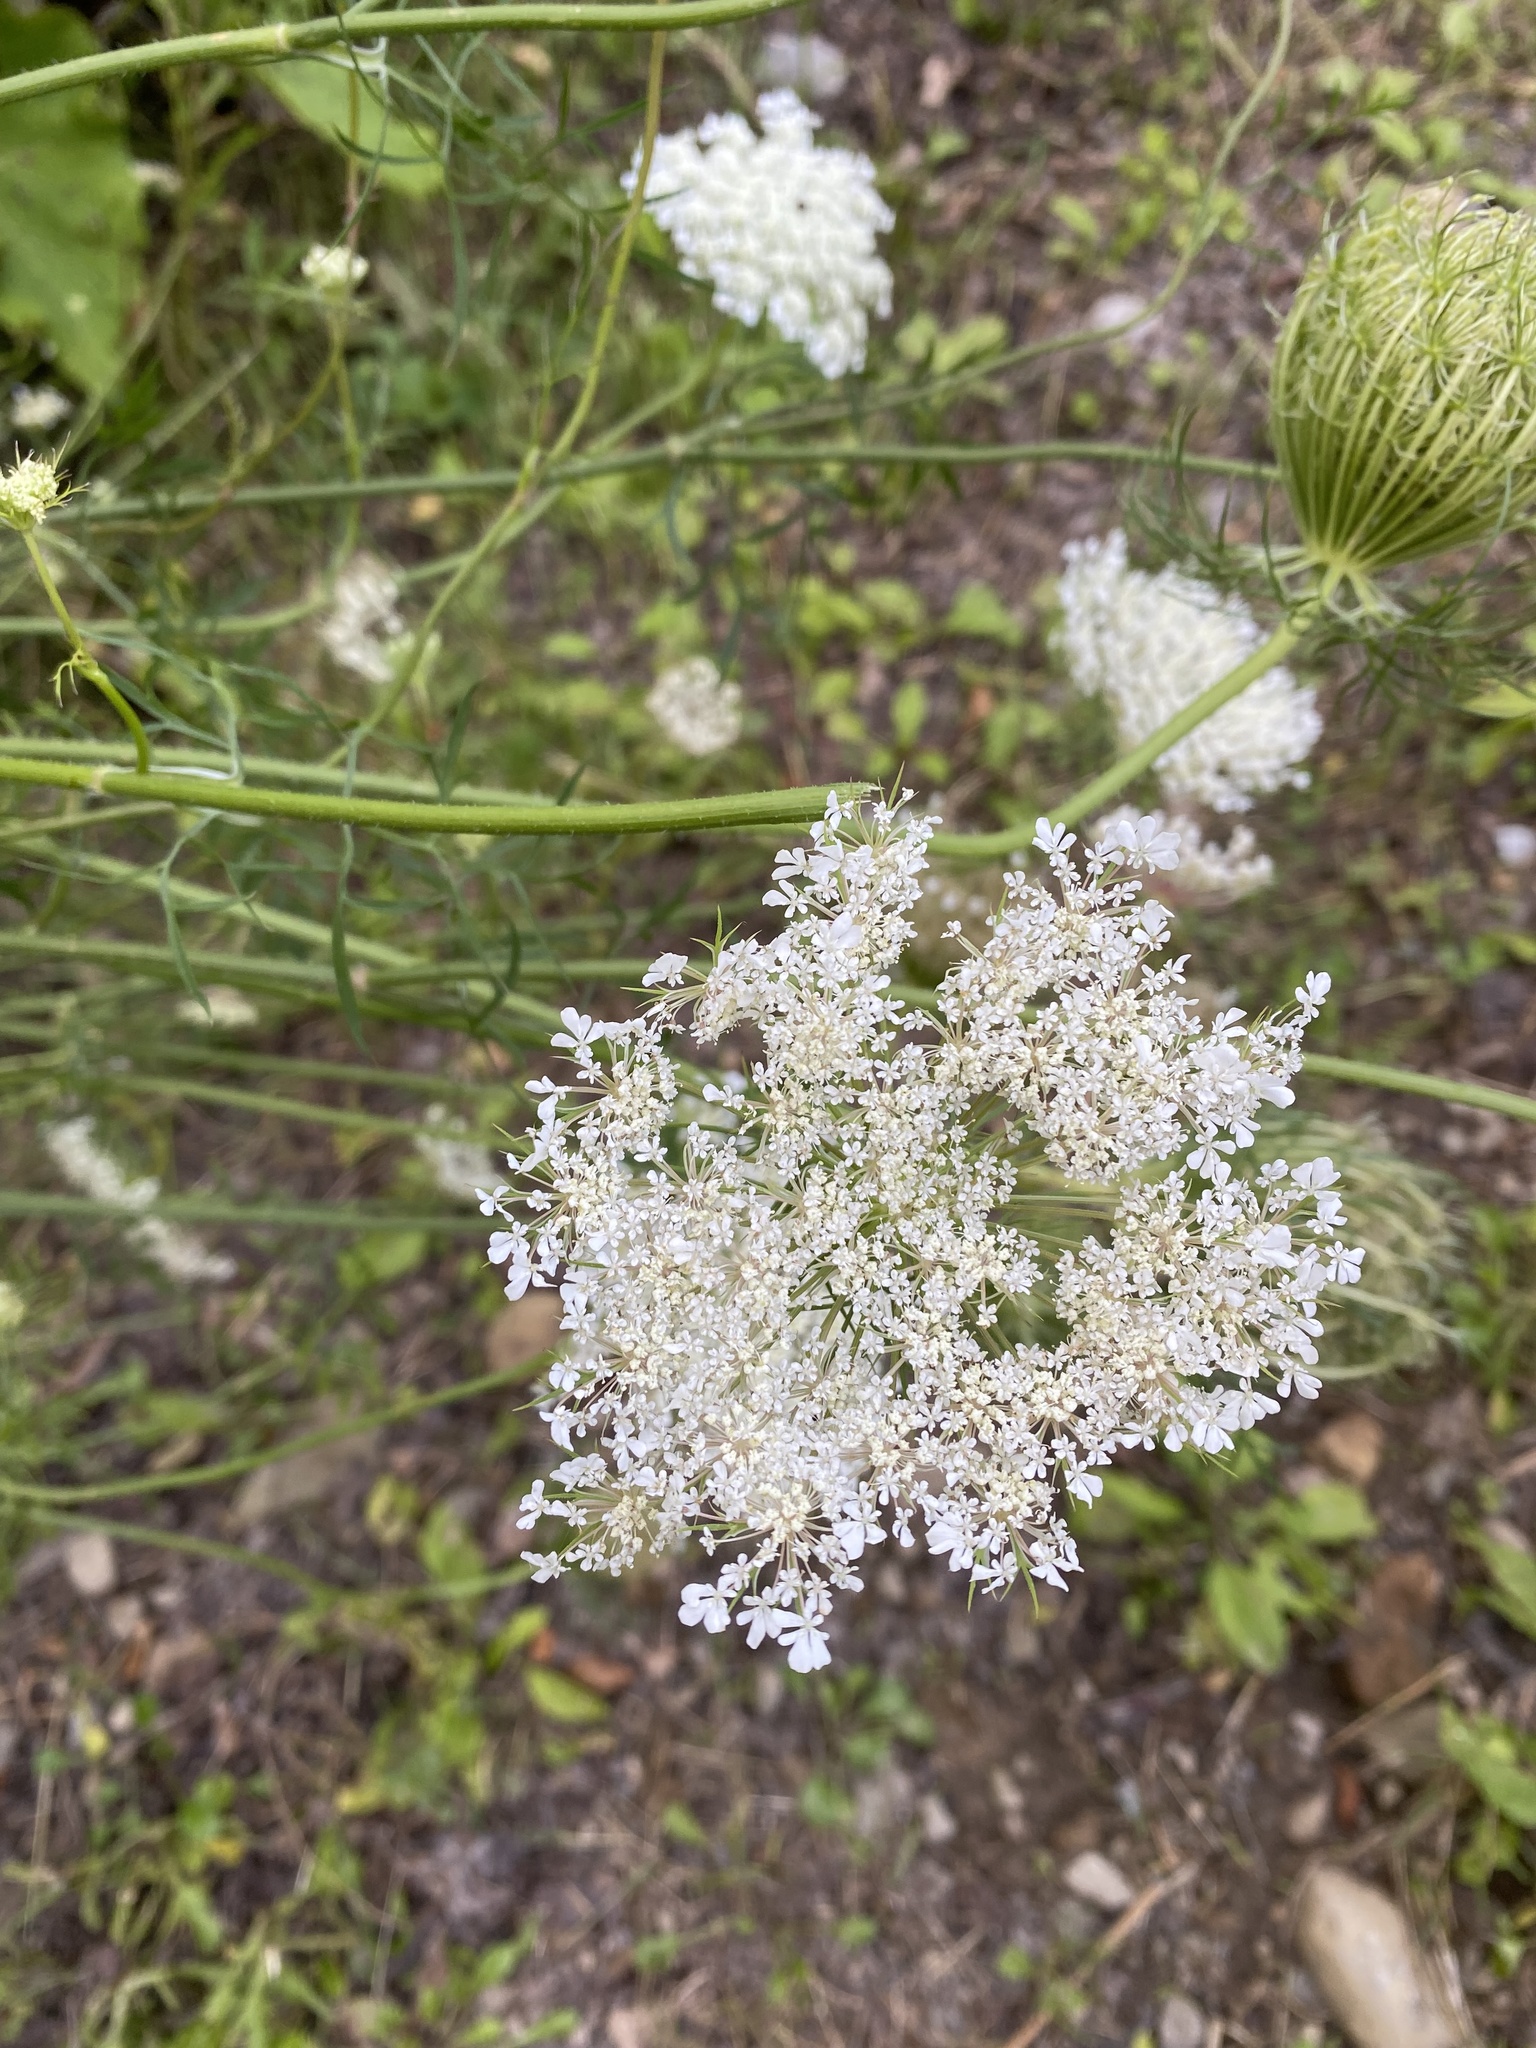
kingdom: Plantae
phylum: Tracheophyta
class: Magnoliopsida
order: Apiales
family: Apiaceae
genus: Daucus
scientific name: Daucus carota
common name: Wild carrot
